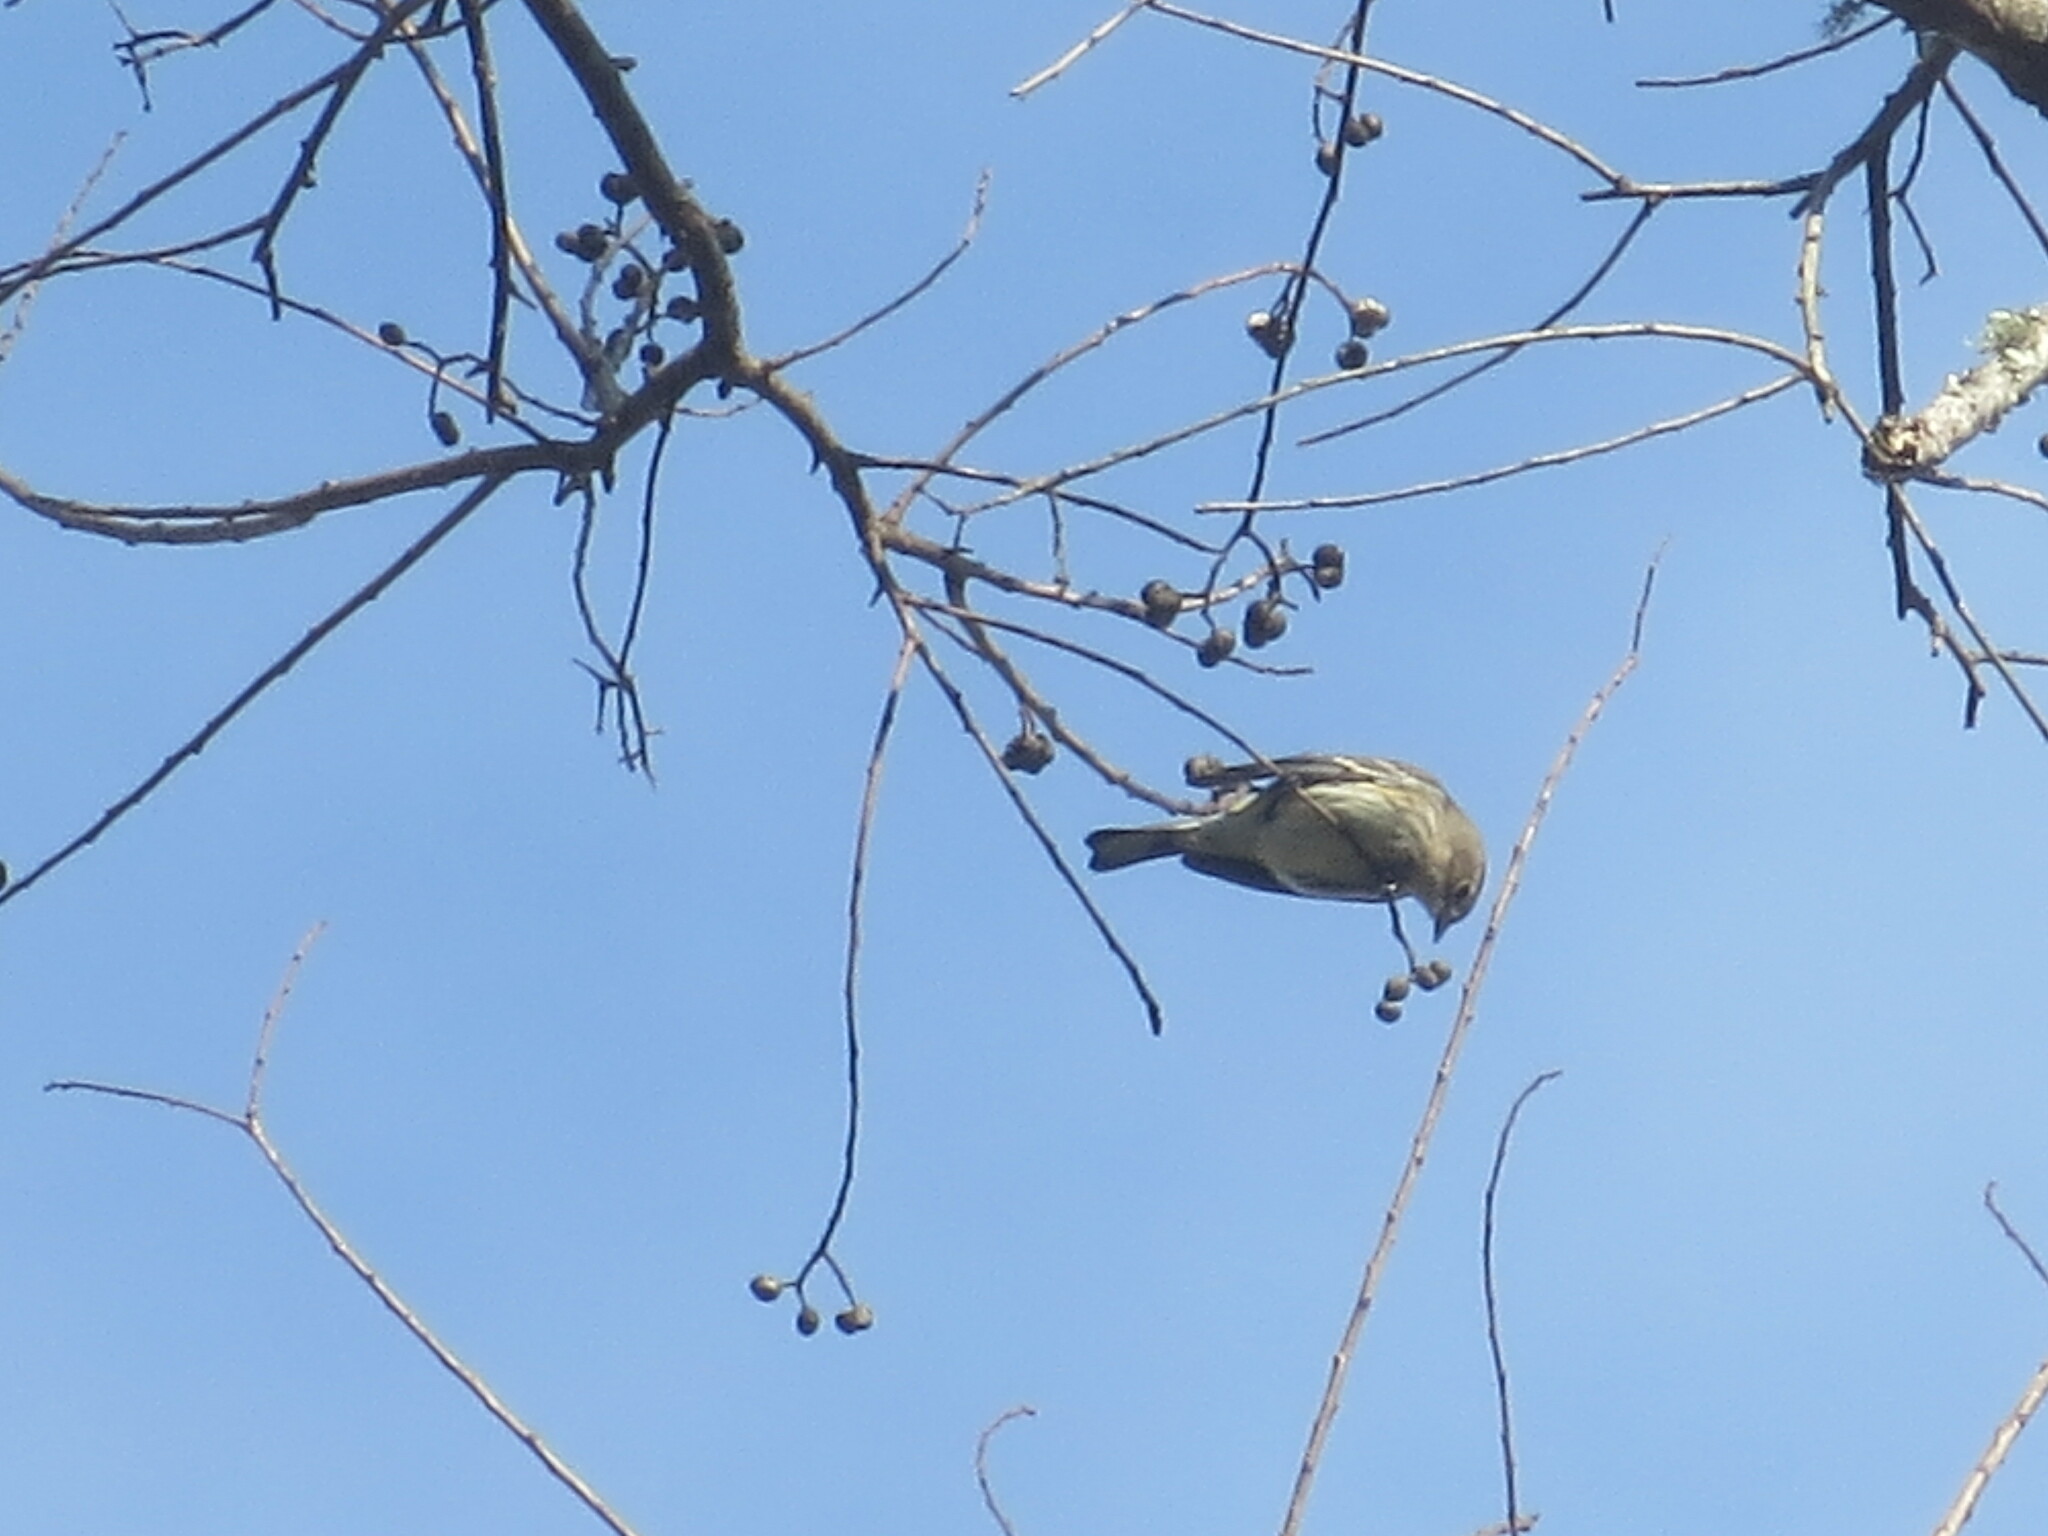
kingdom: Animalia
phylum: Chordata
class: Aves
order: Passeriformes
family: Parulidae
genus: Setophaga
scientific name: Setophaga coronata
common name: Myrtle warbler
